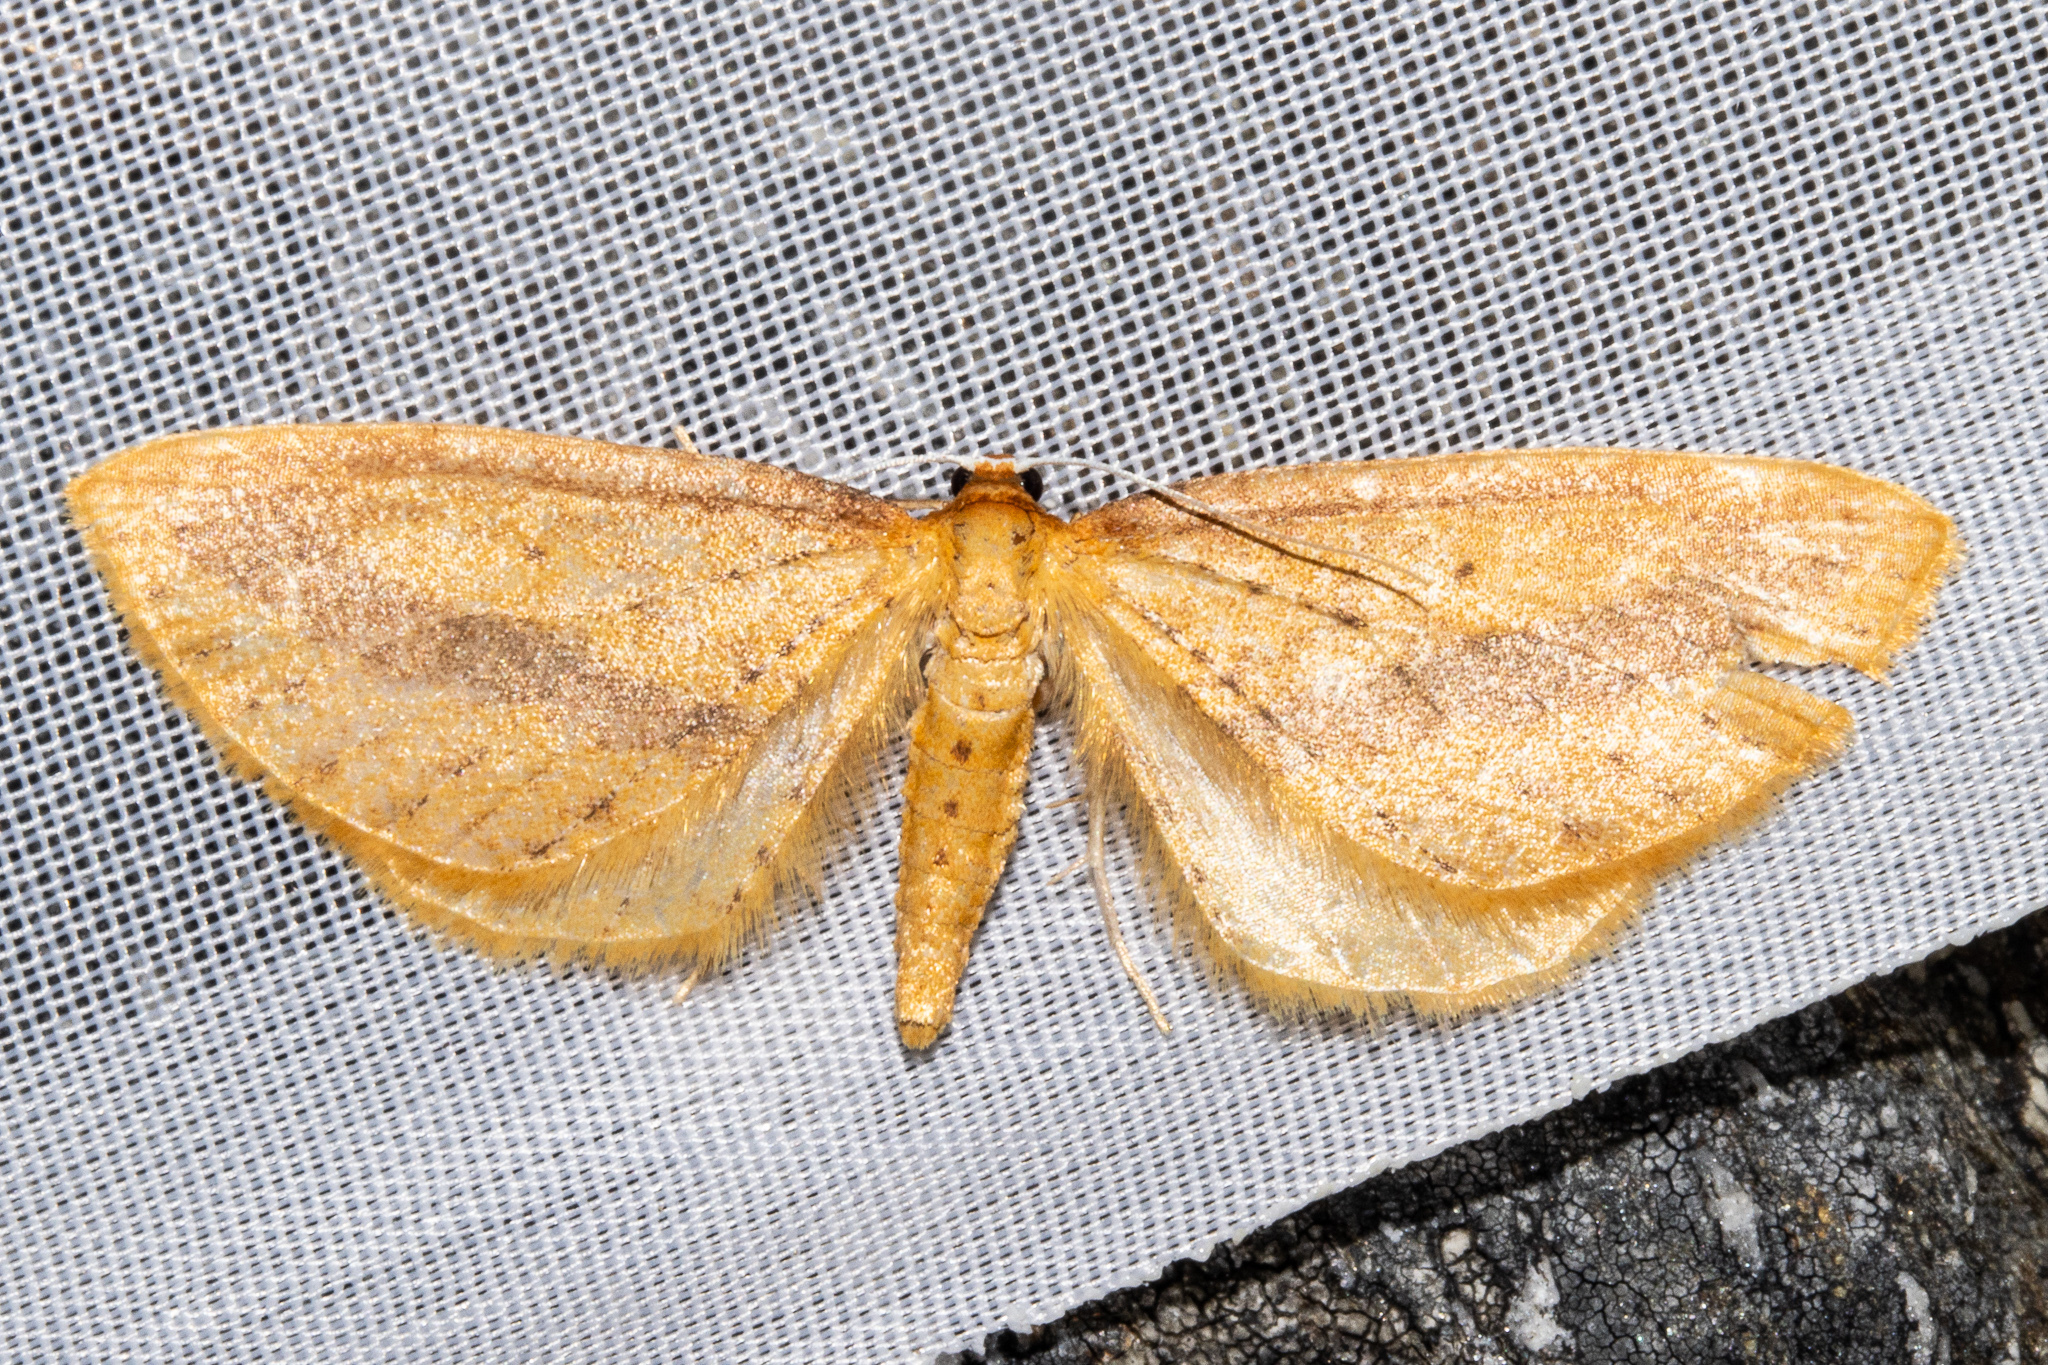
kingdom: Animalia
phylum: Arthropoda
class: Insecta
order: Lepidoptera
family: Geometridae
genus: Epiphryne
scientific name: Epiphryne charidema
